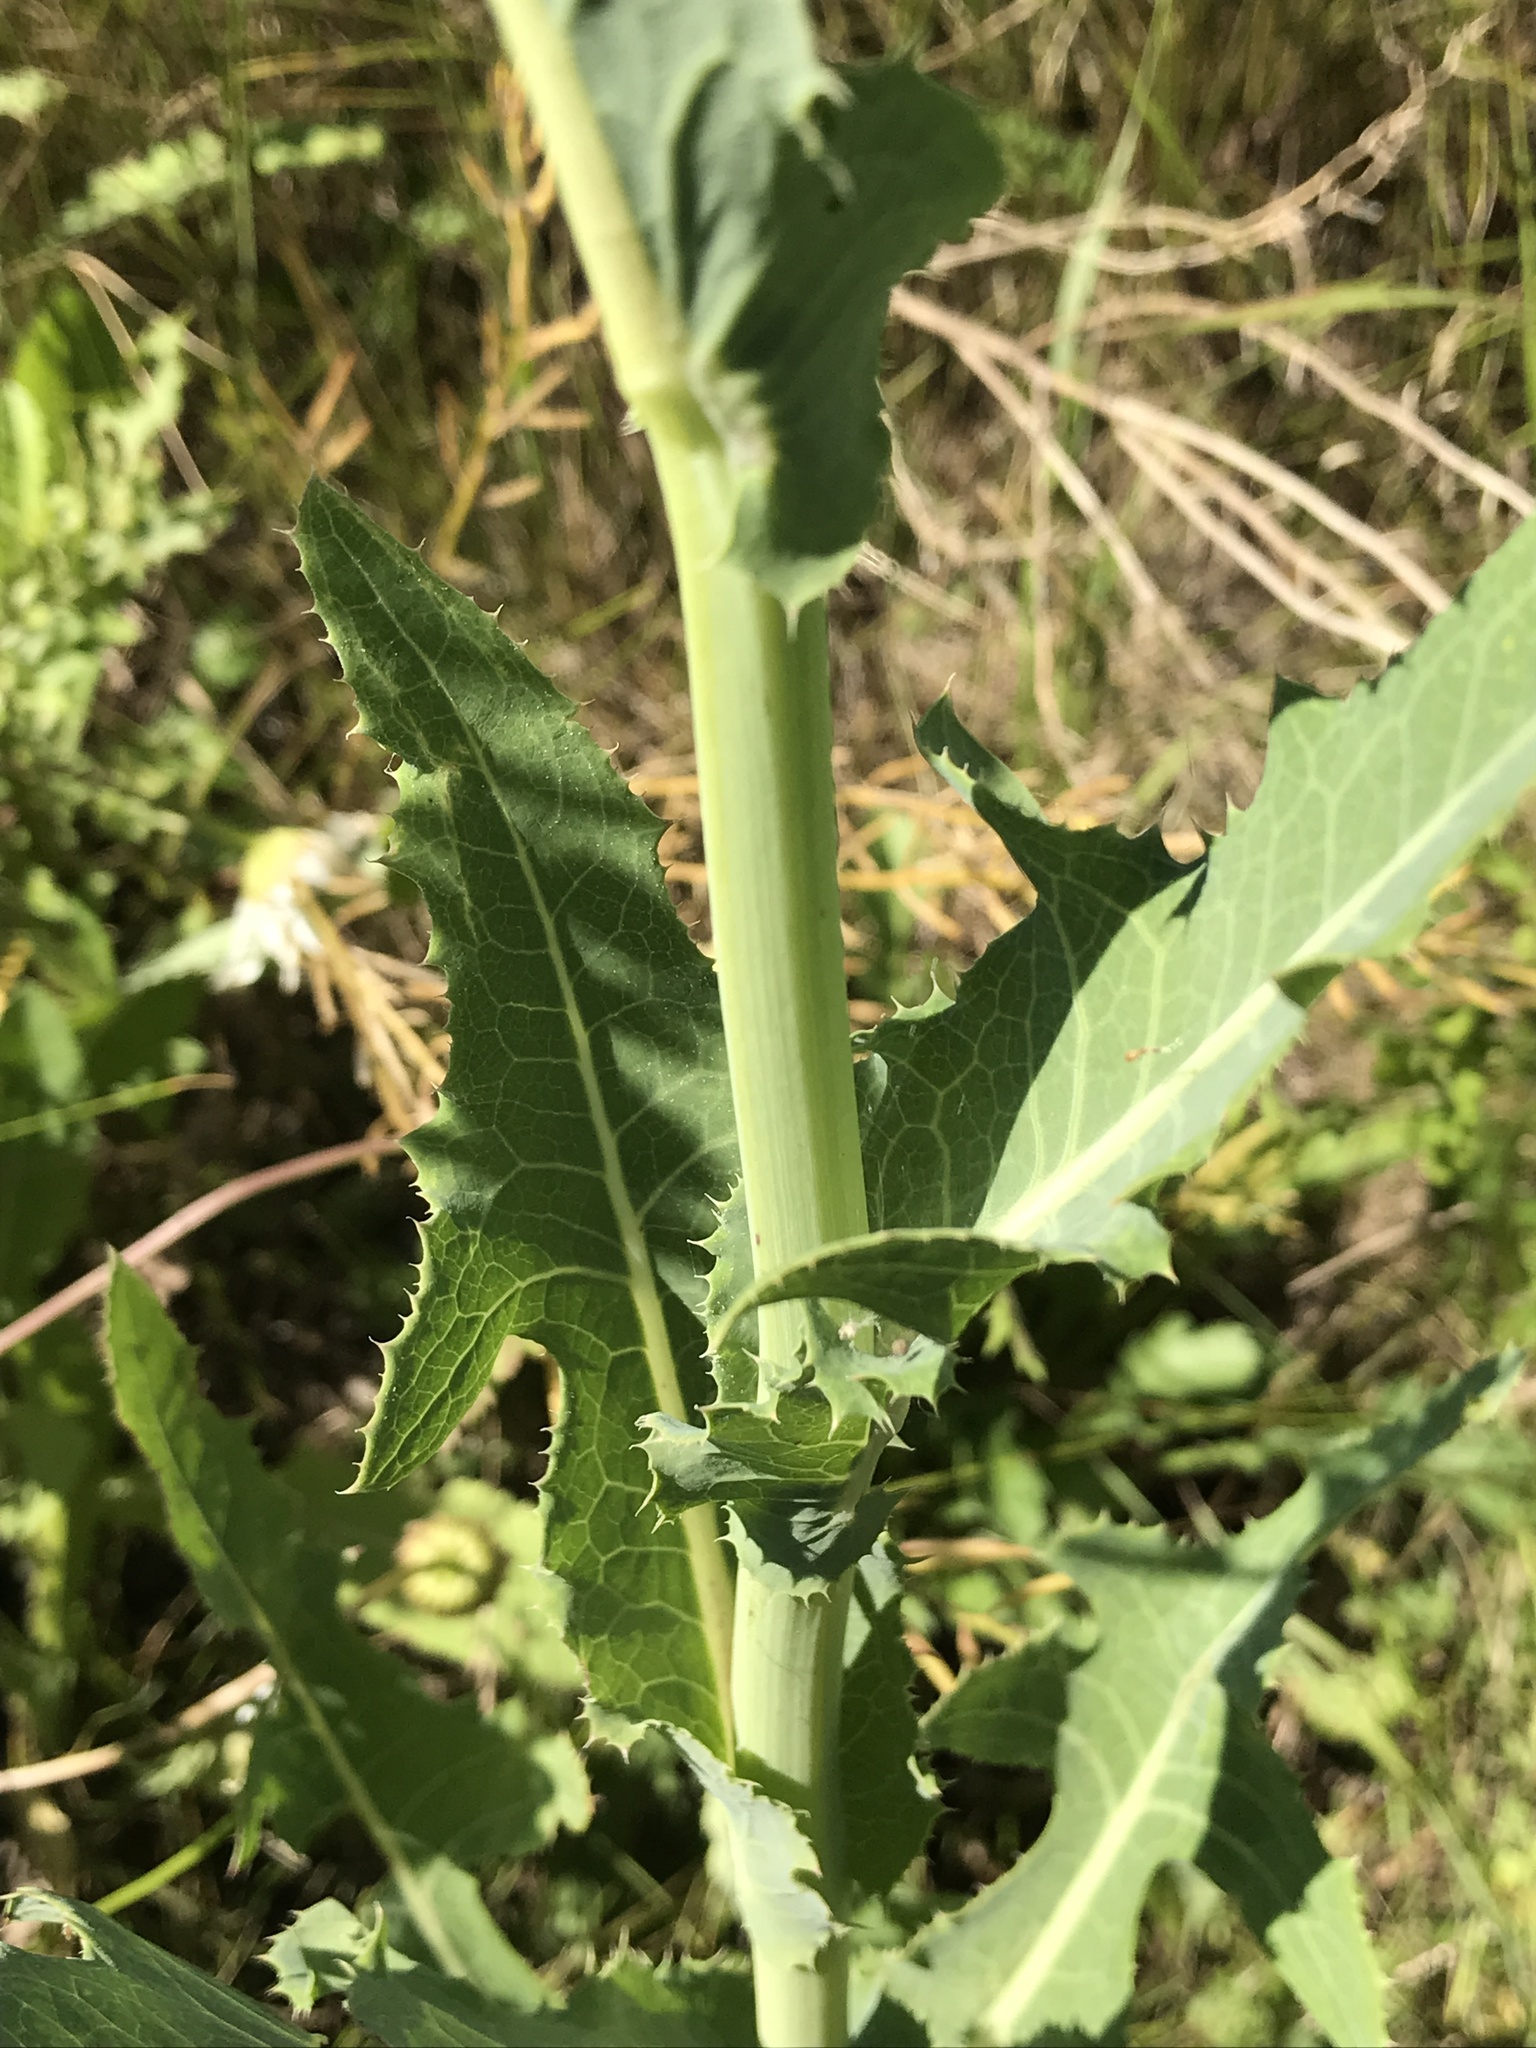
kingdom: Plantae
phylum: Tracheophyta
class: Magnoliopsida
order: Asterales
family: Asteraceae
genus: Sonchus
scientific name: Sonchus arvensis
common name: Perennial sow-thistle
